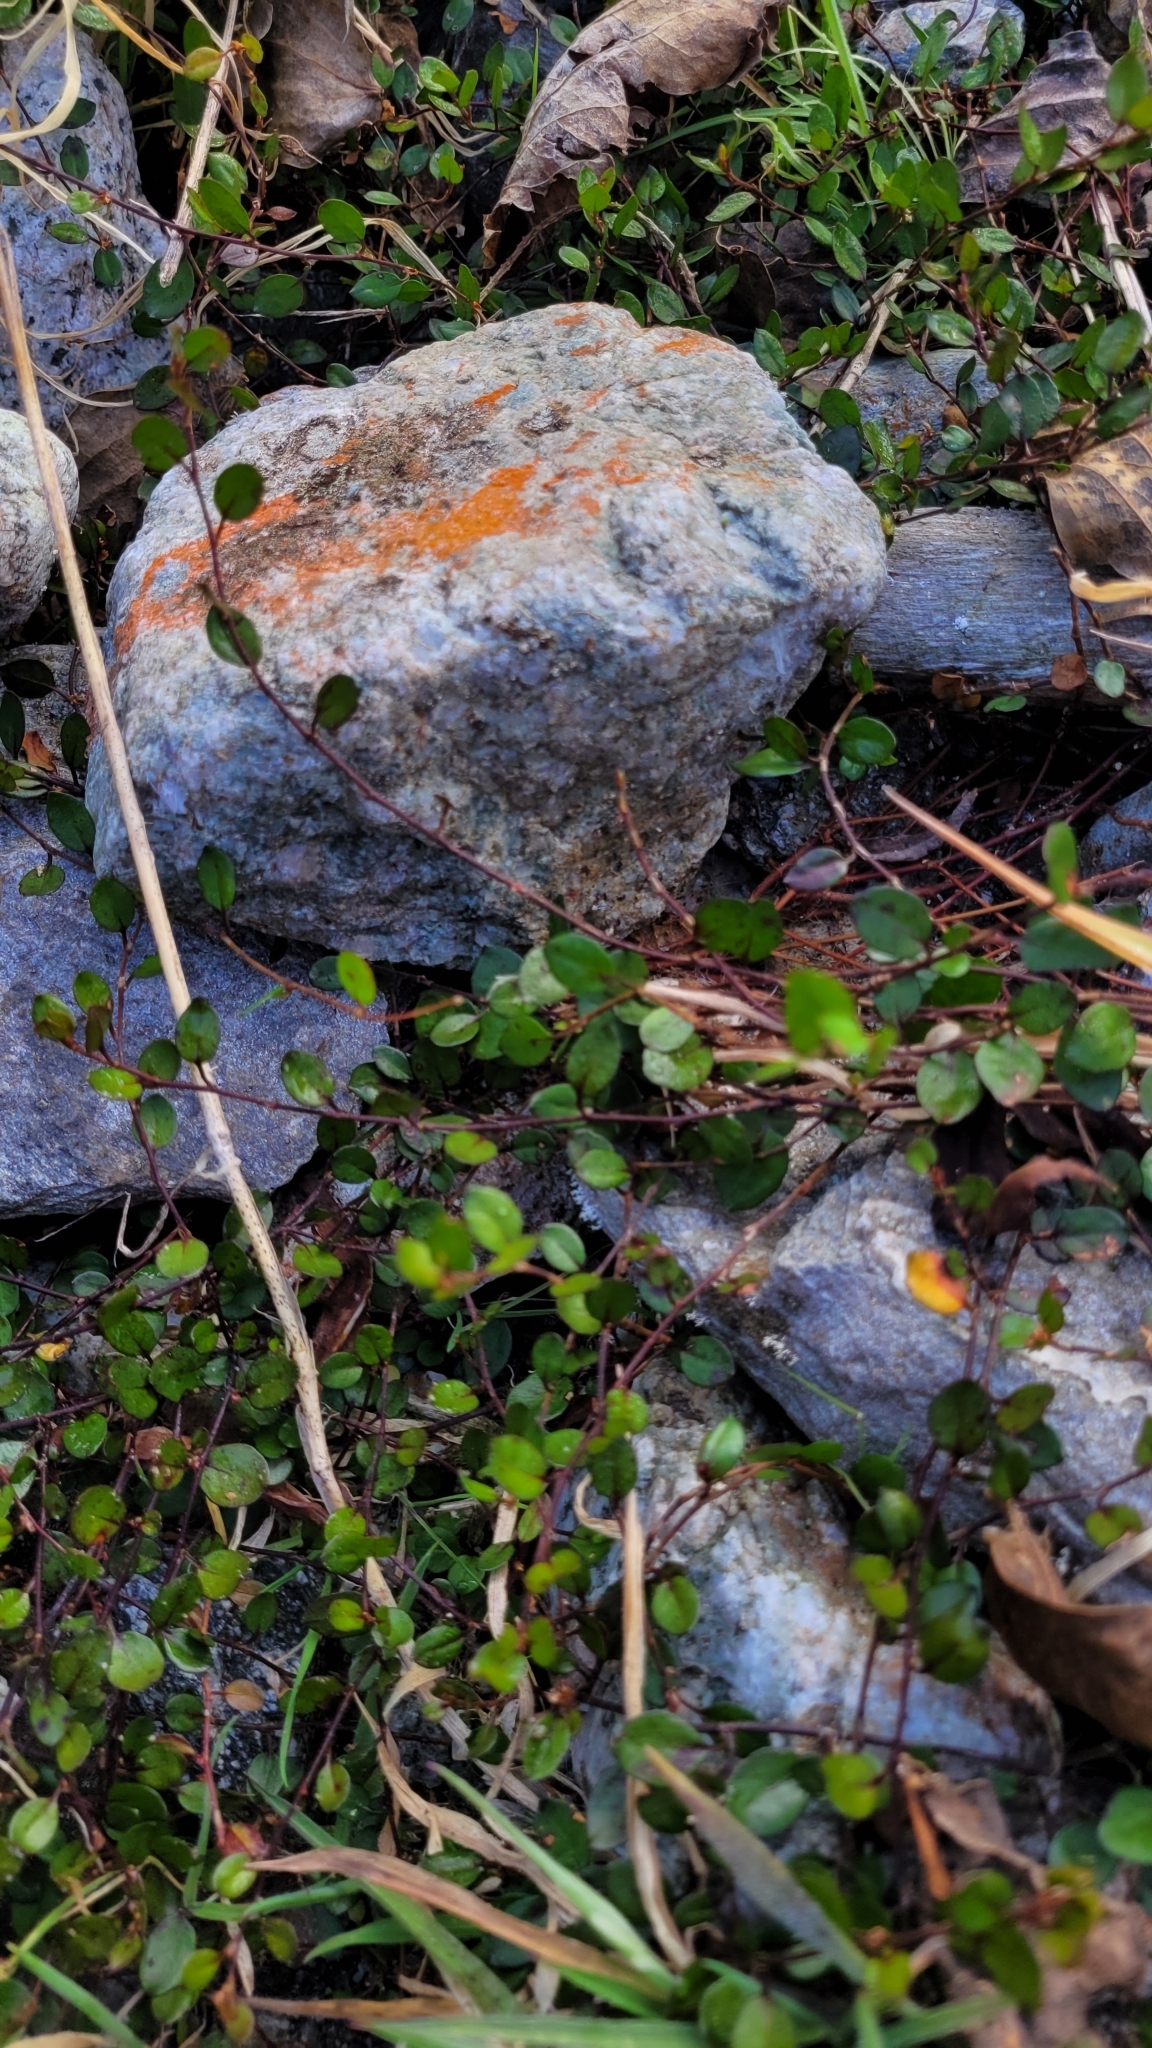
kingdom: Plantae
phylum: Tracheophyta
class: Magnoliopsida
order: Caryophyllales
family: Polygonaceae
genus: Muehlenbeckia
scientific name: Muehlenbeckia axillaris
